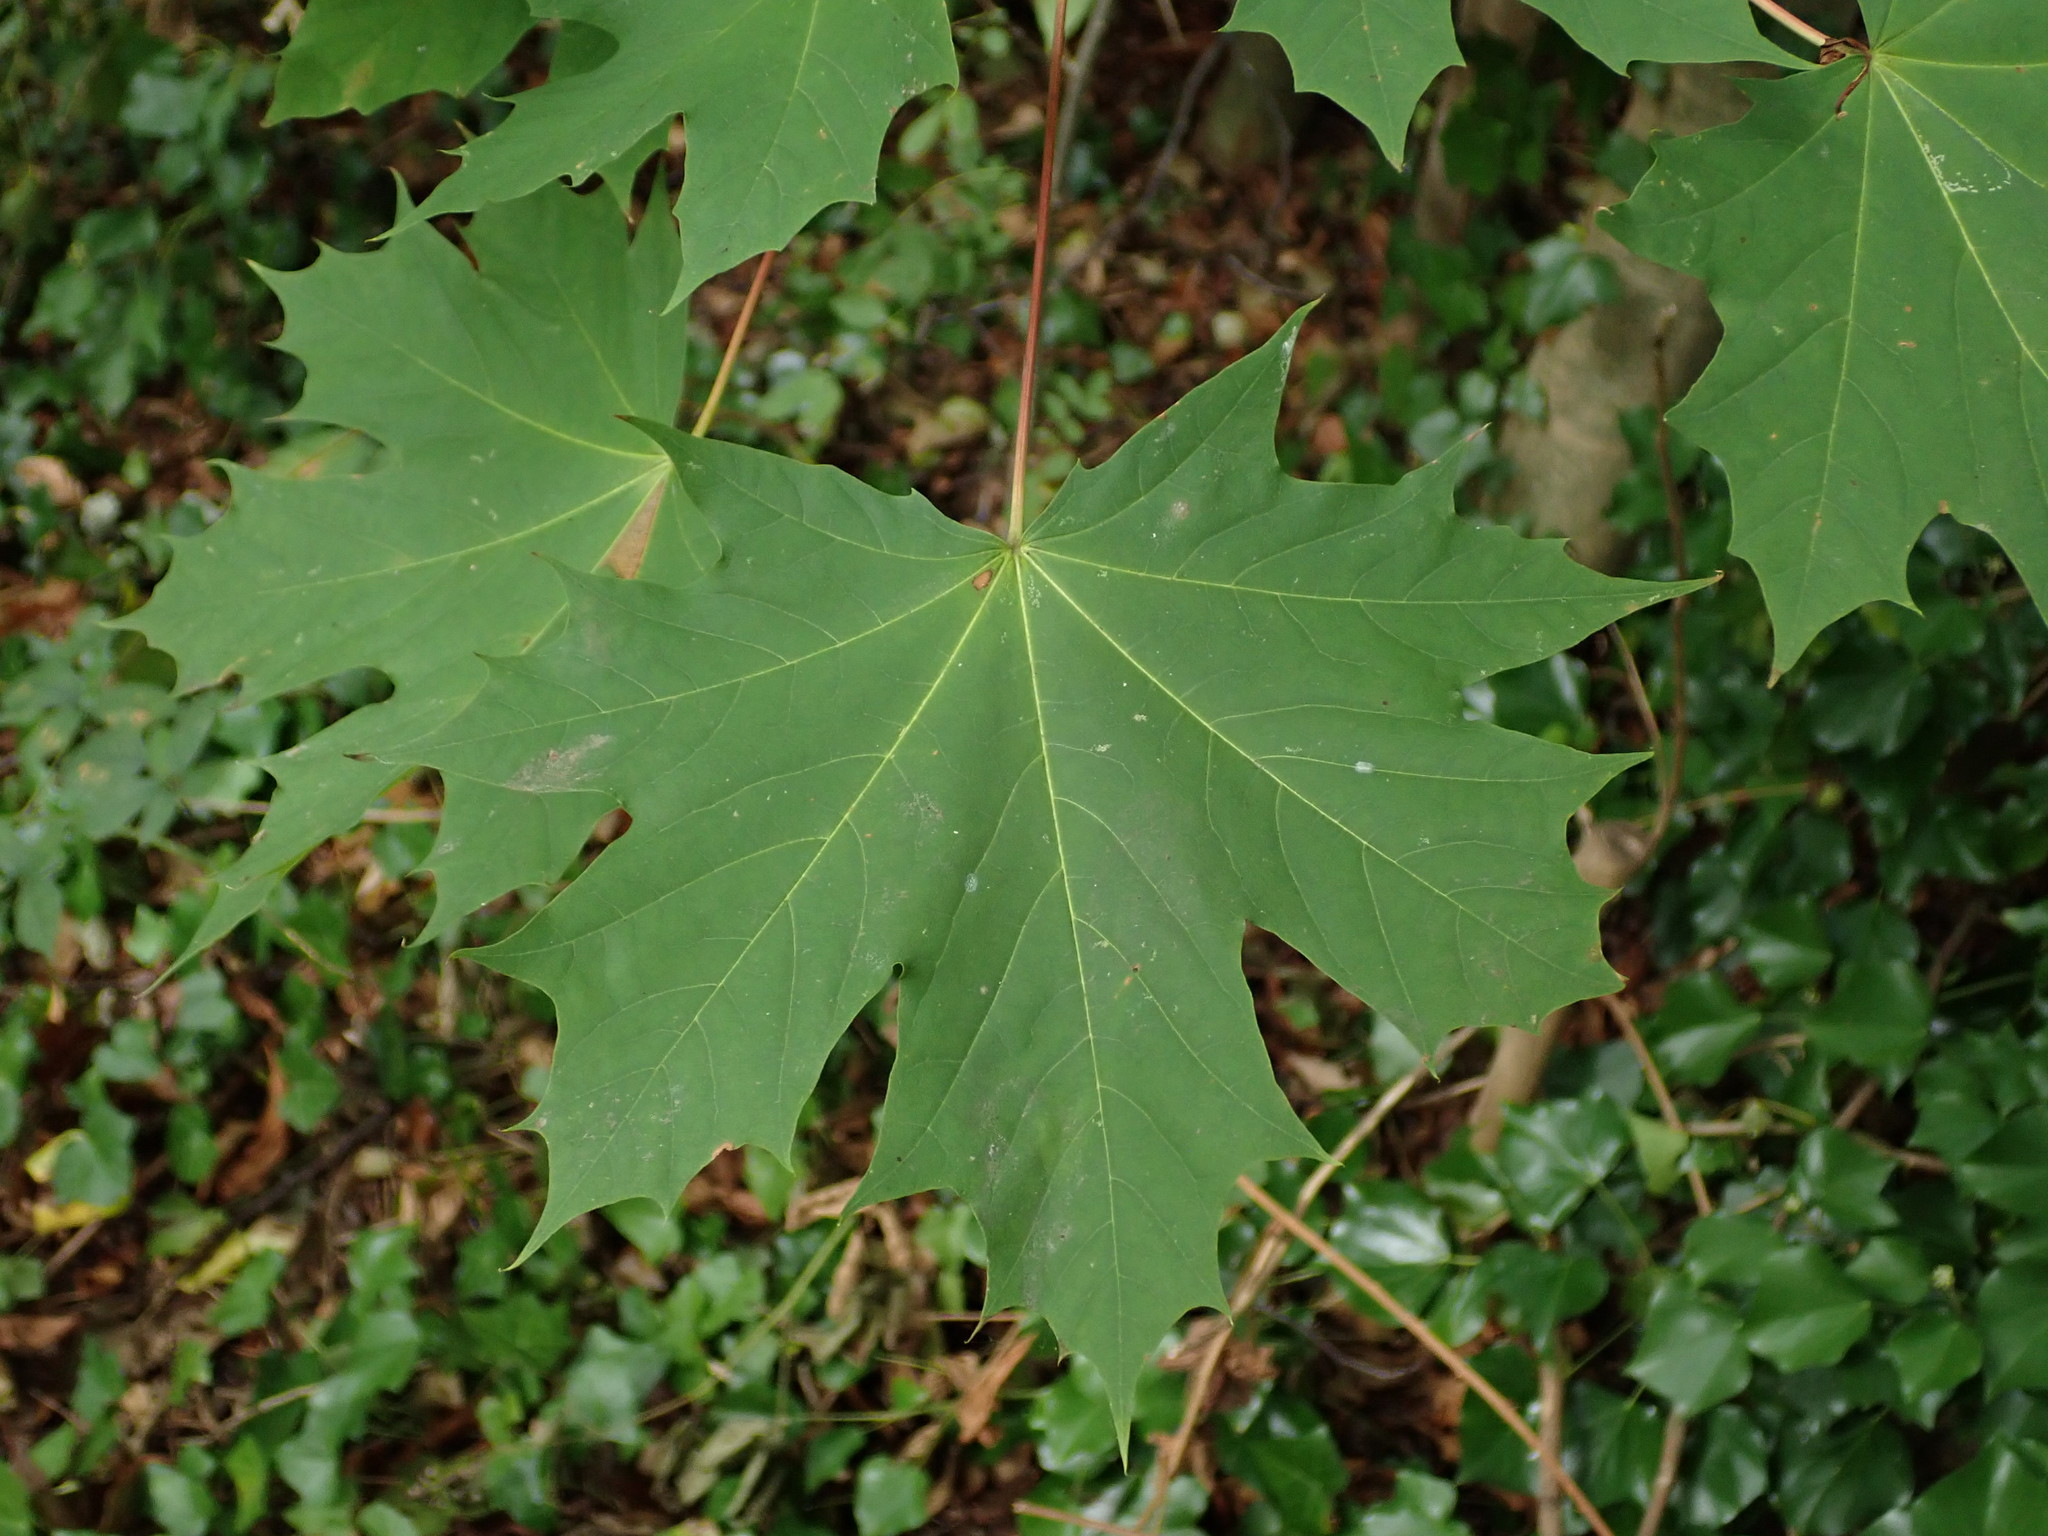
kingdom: Plantae
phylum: Tracheophyta
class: Magnoliopsida
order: Sapindales
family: Sapindaceae
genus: Acer
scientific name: Acer platanoides
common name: Norway maple
